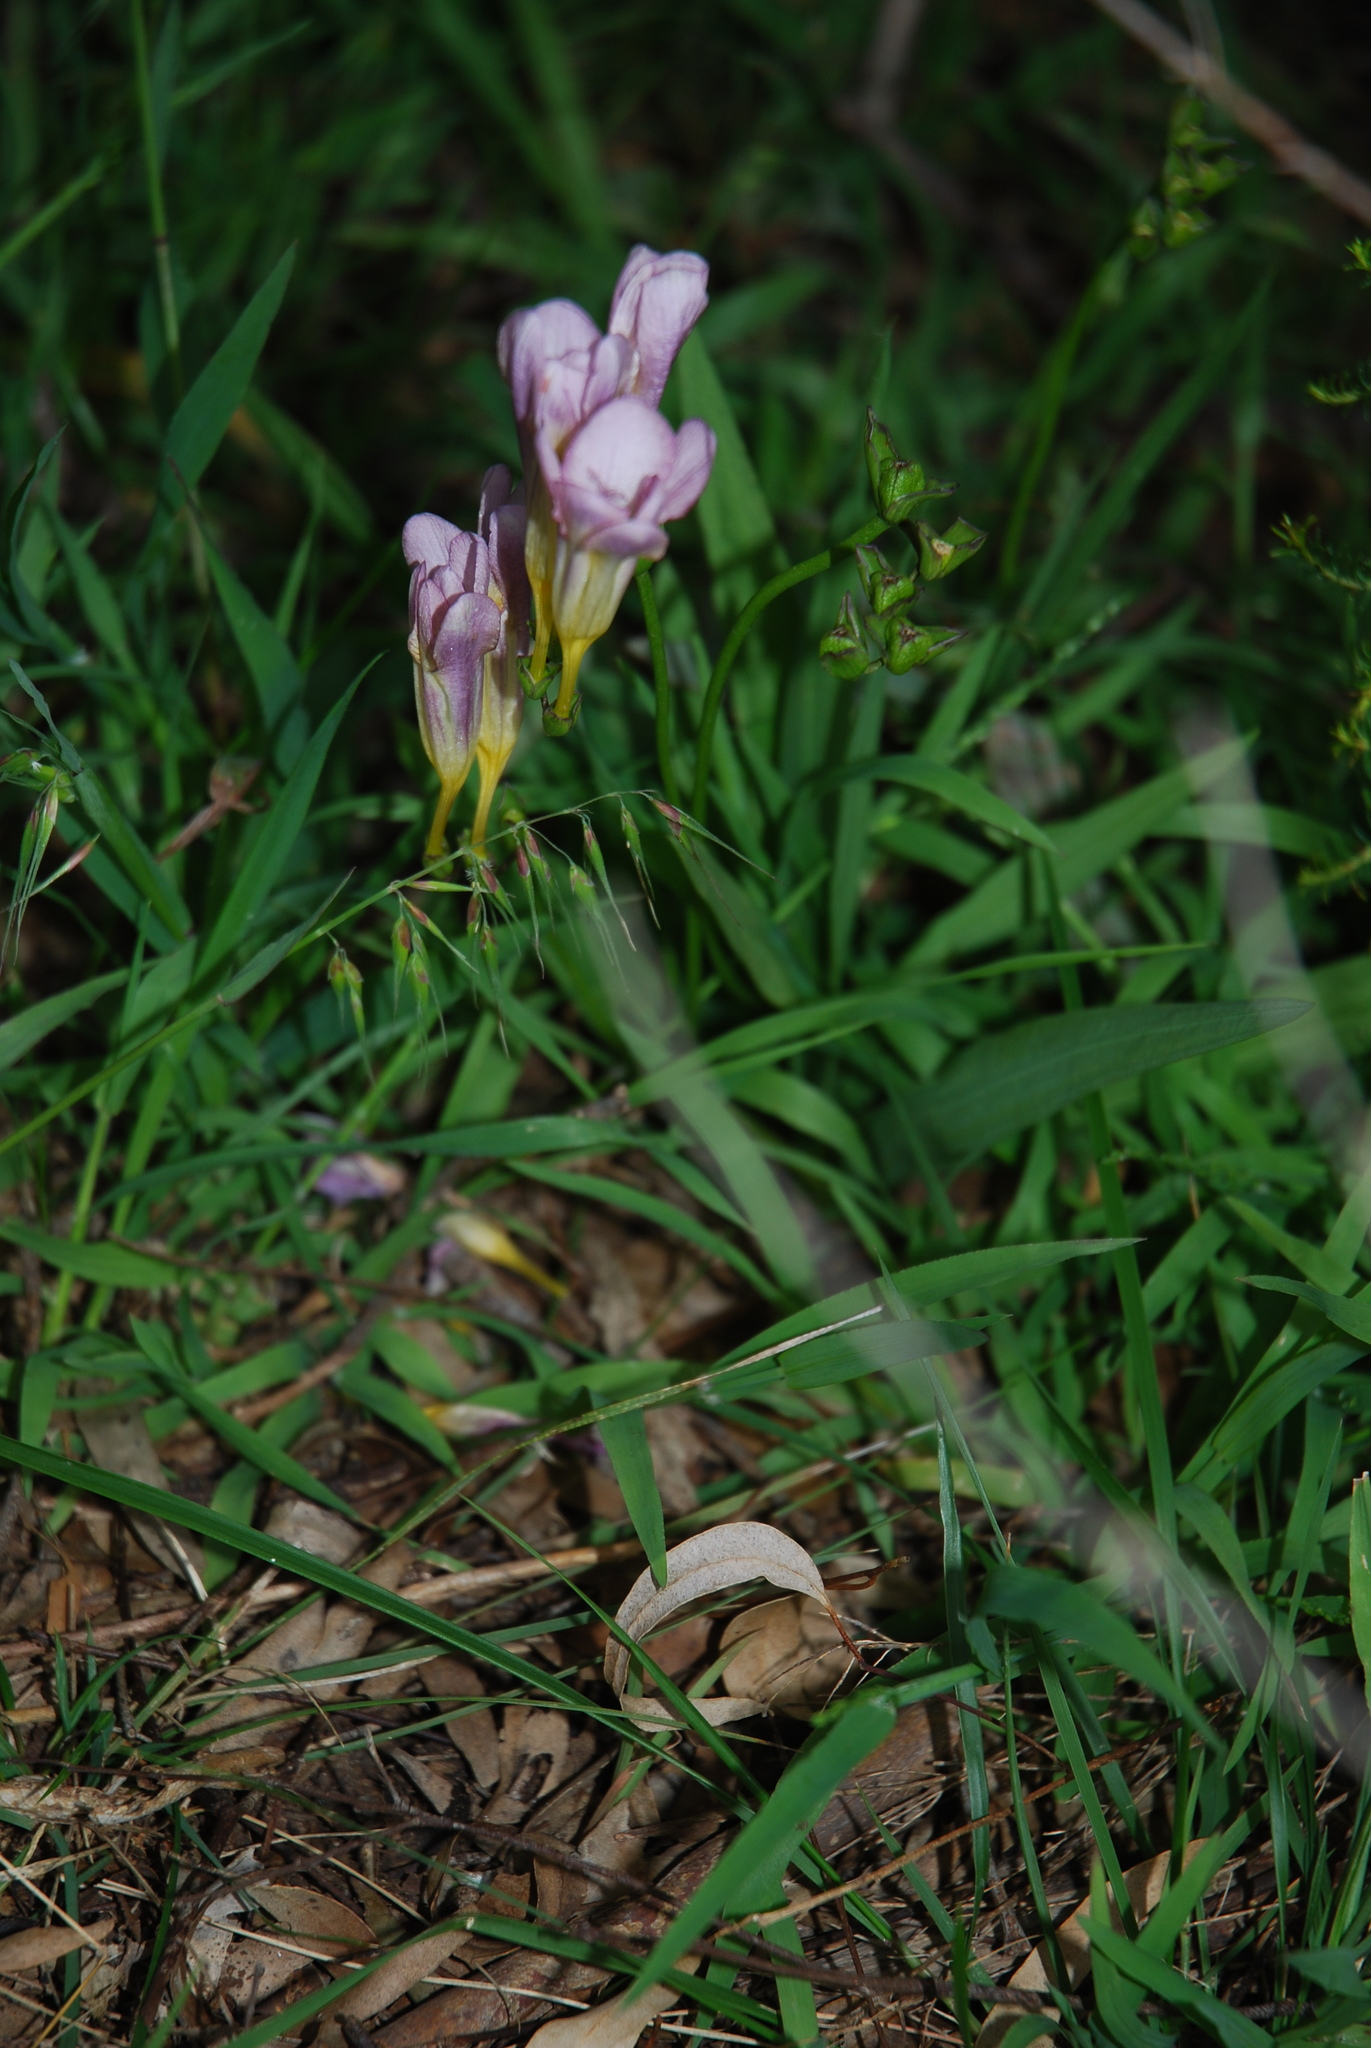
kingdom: Plantae
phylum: Tracheophyta
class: Liliopsida
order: Asparagales
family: Iridaceae
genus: Freesia
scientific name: Freesia
